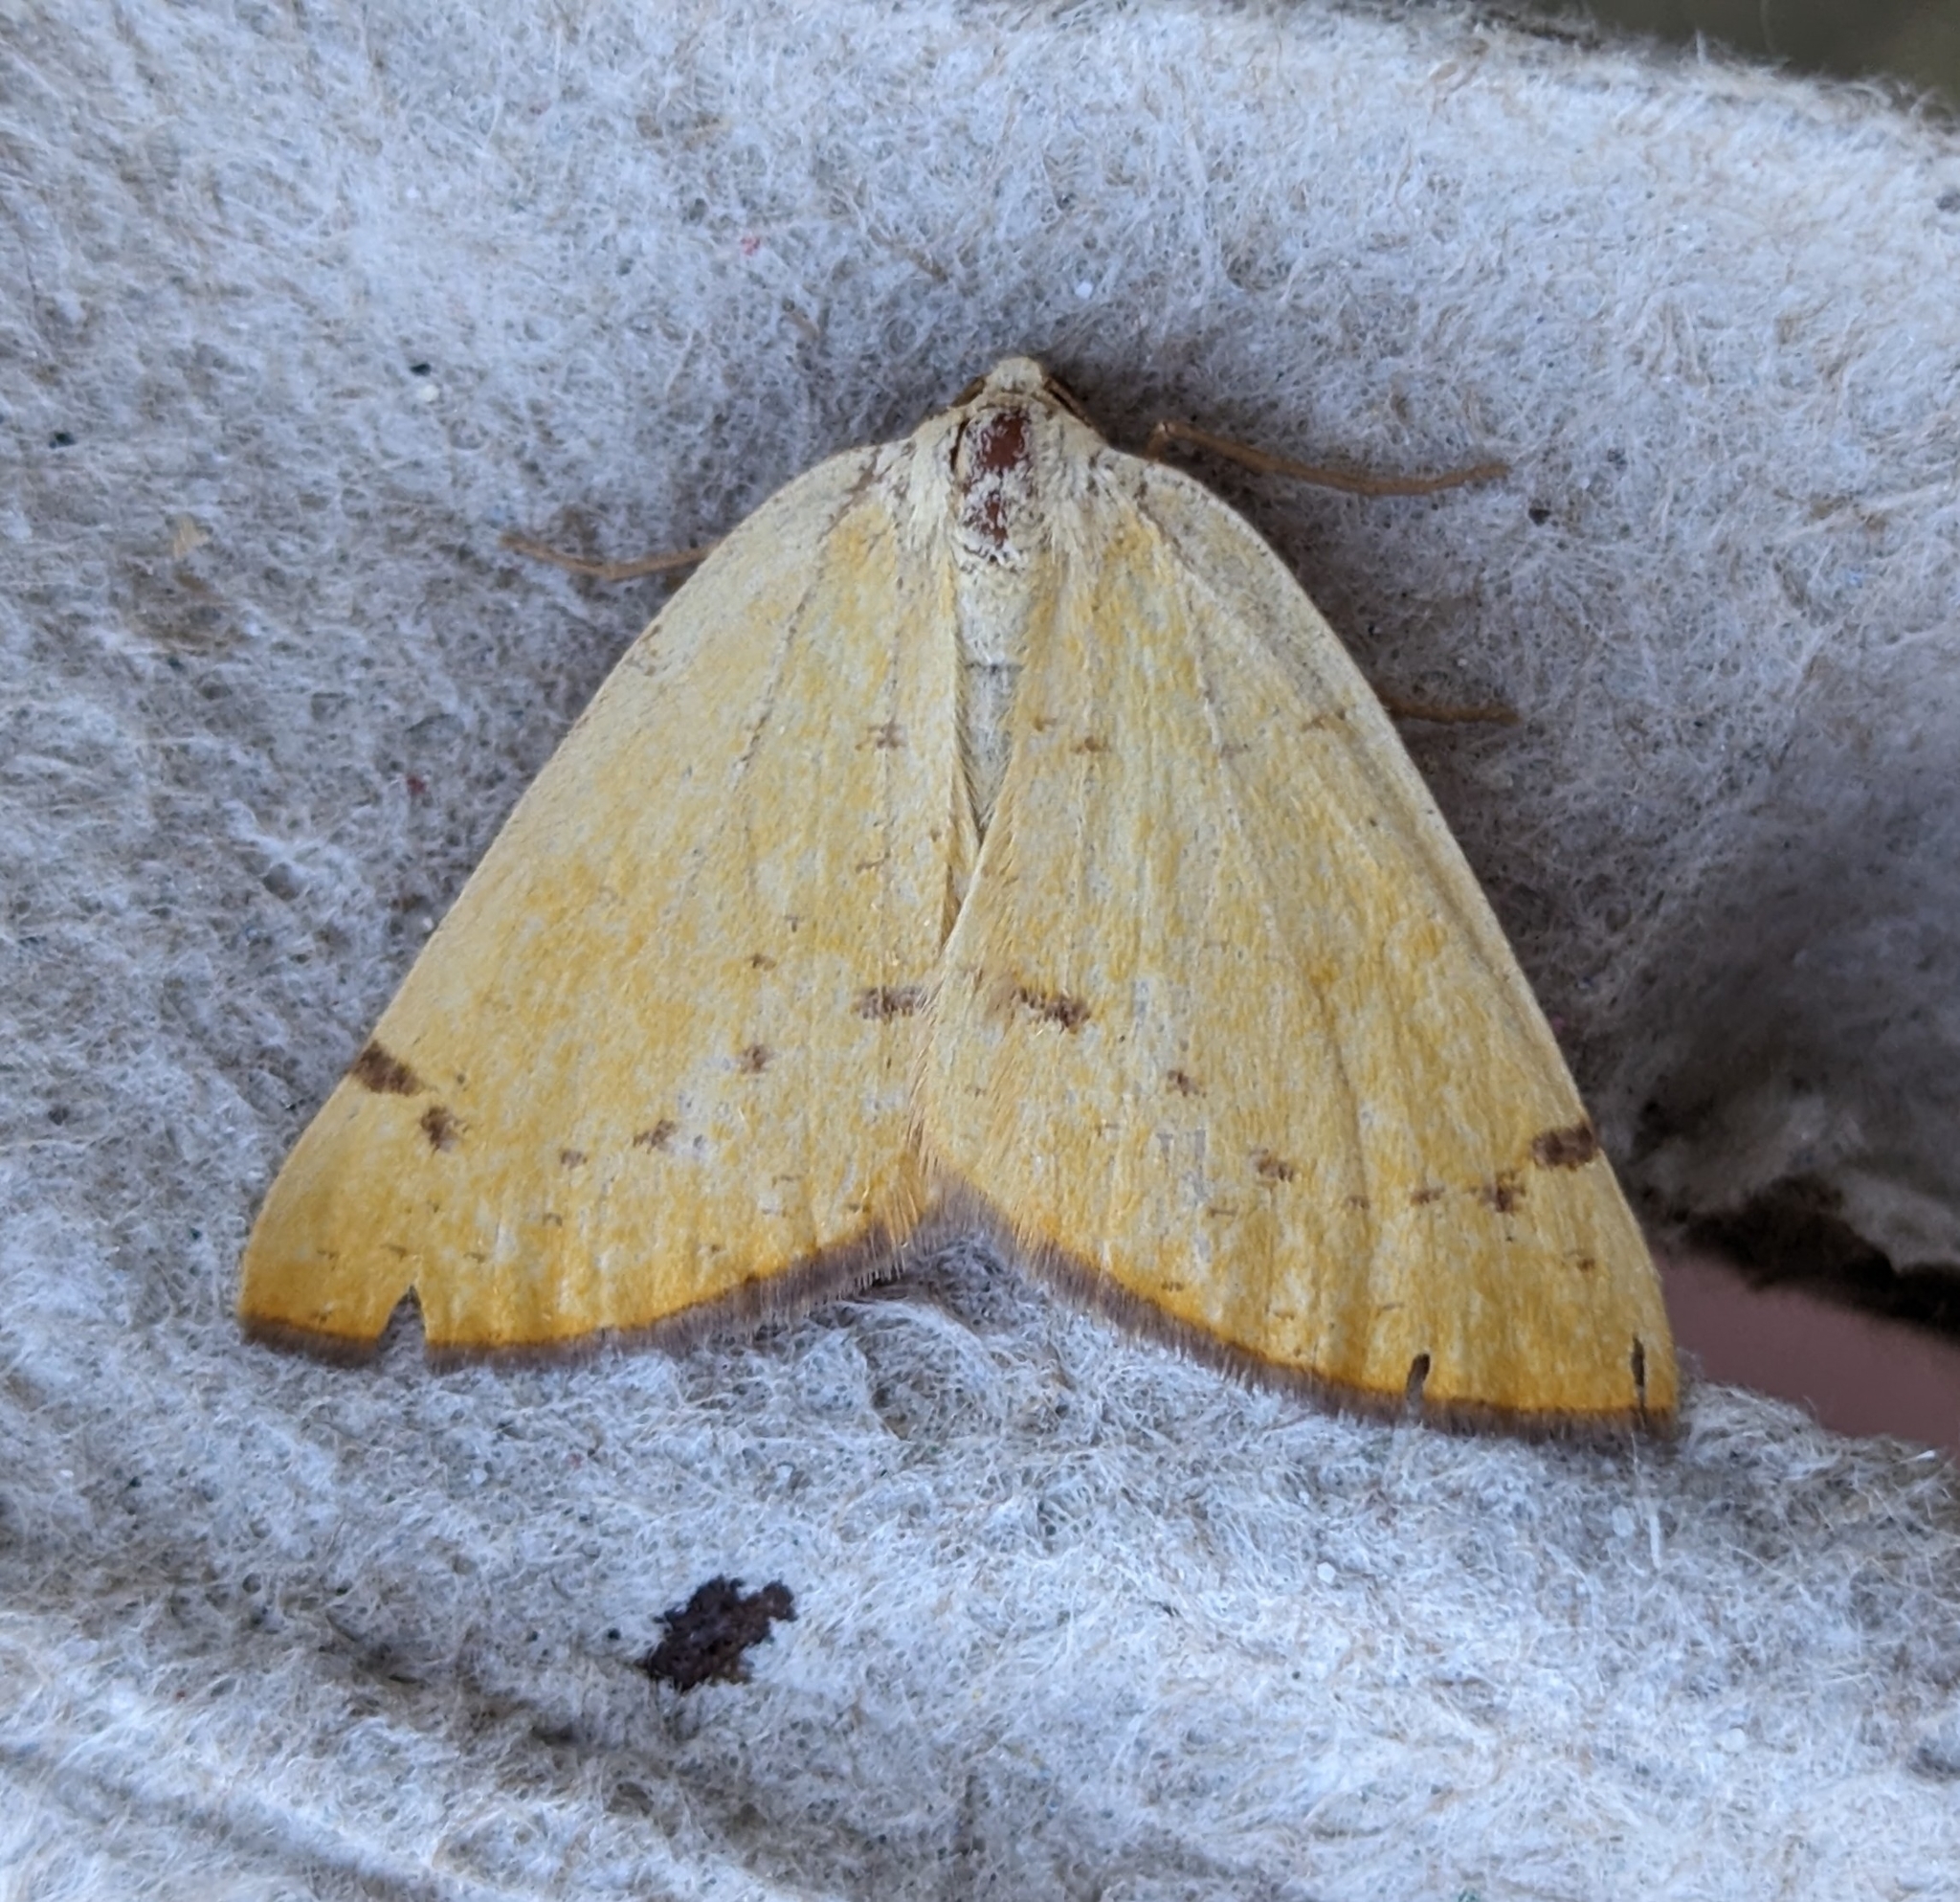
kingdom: Animalia
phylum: Arthropoda
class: Insecta
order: Lepidoptera
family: Geometridae
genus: Hesperumia
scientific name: Hesperumia sulphuraria
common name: Sulphur moth
